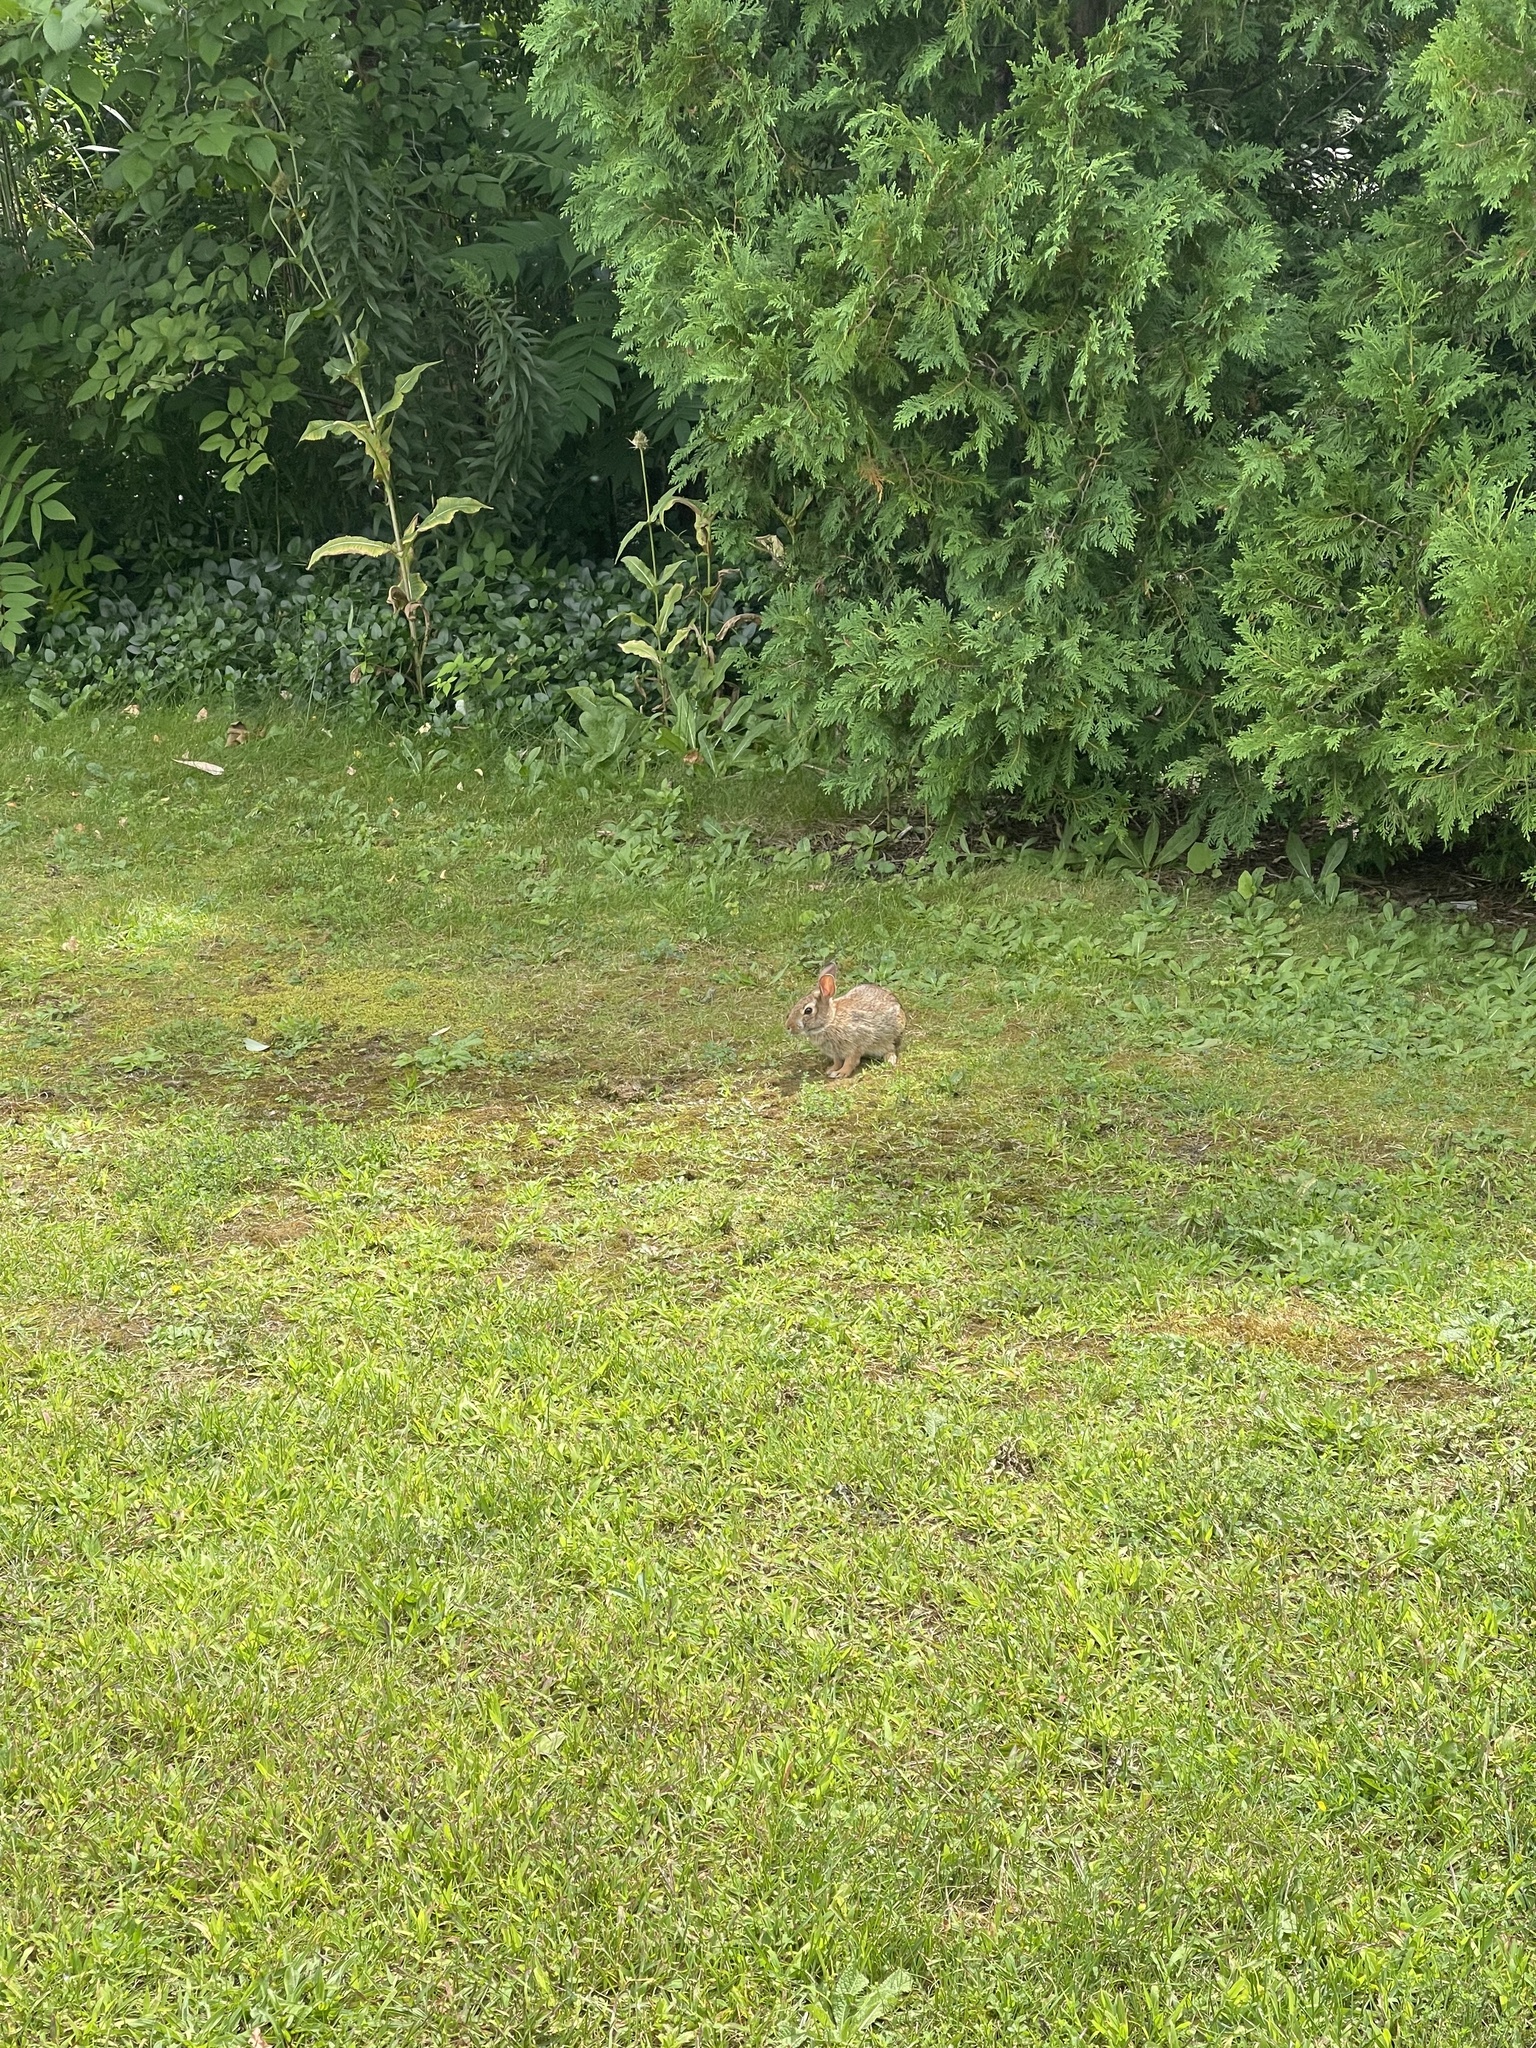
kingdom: Animalia
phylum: Chordata
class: Mammalia
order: Lagomorpha
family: Leporidae
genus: Sylvilagus
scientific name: Sylvilagus floridanus
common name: Eastern cottontail
